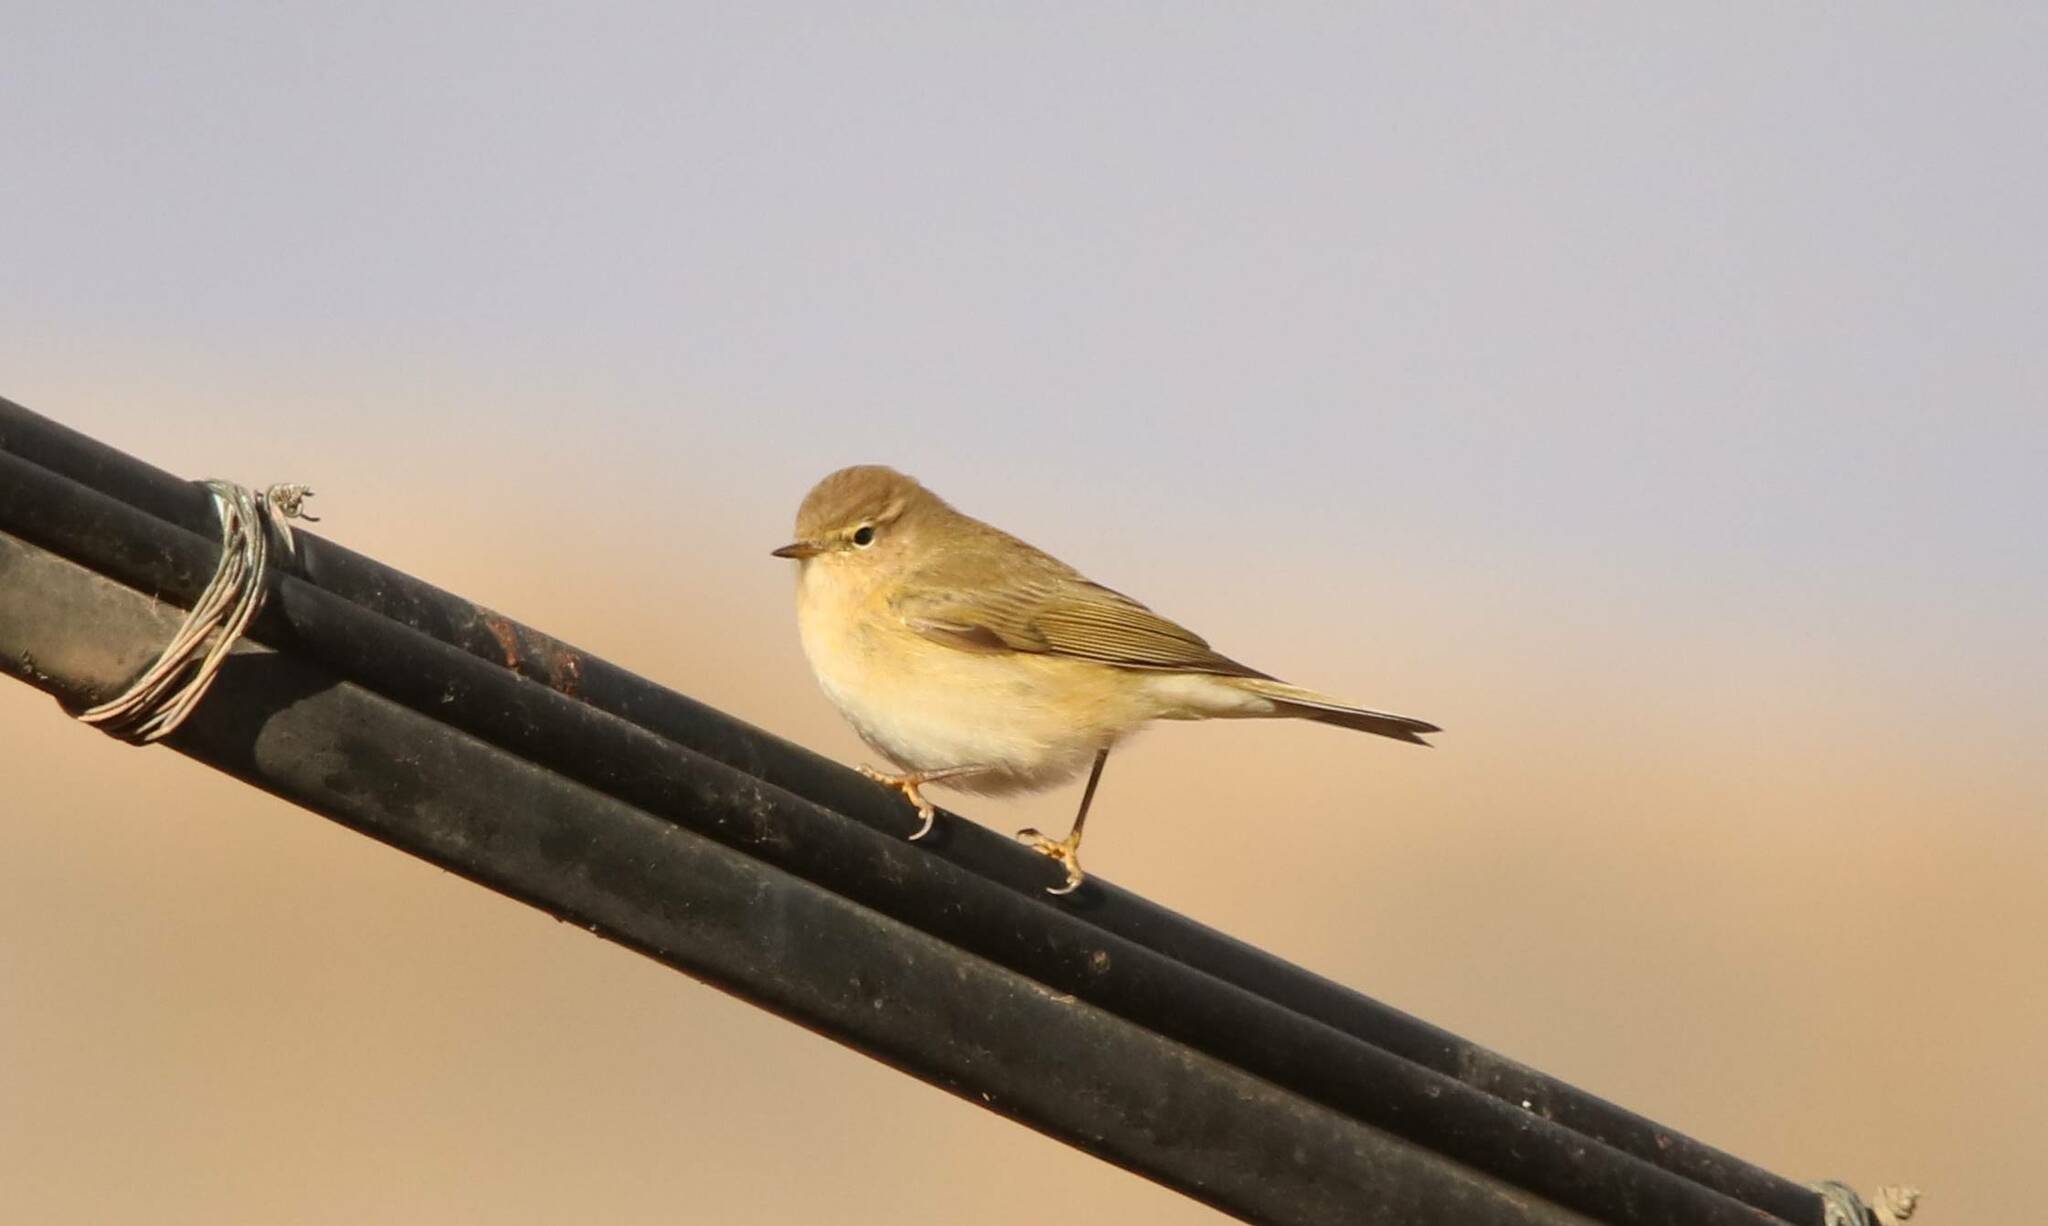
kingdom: Animalia
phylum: Chordata
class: Aves
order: Passeriformes
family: Phylloscopidae
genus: Phylloscopus
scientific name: Phylloscopus collybita
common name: Common chiffchaff
